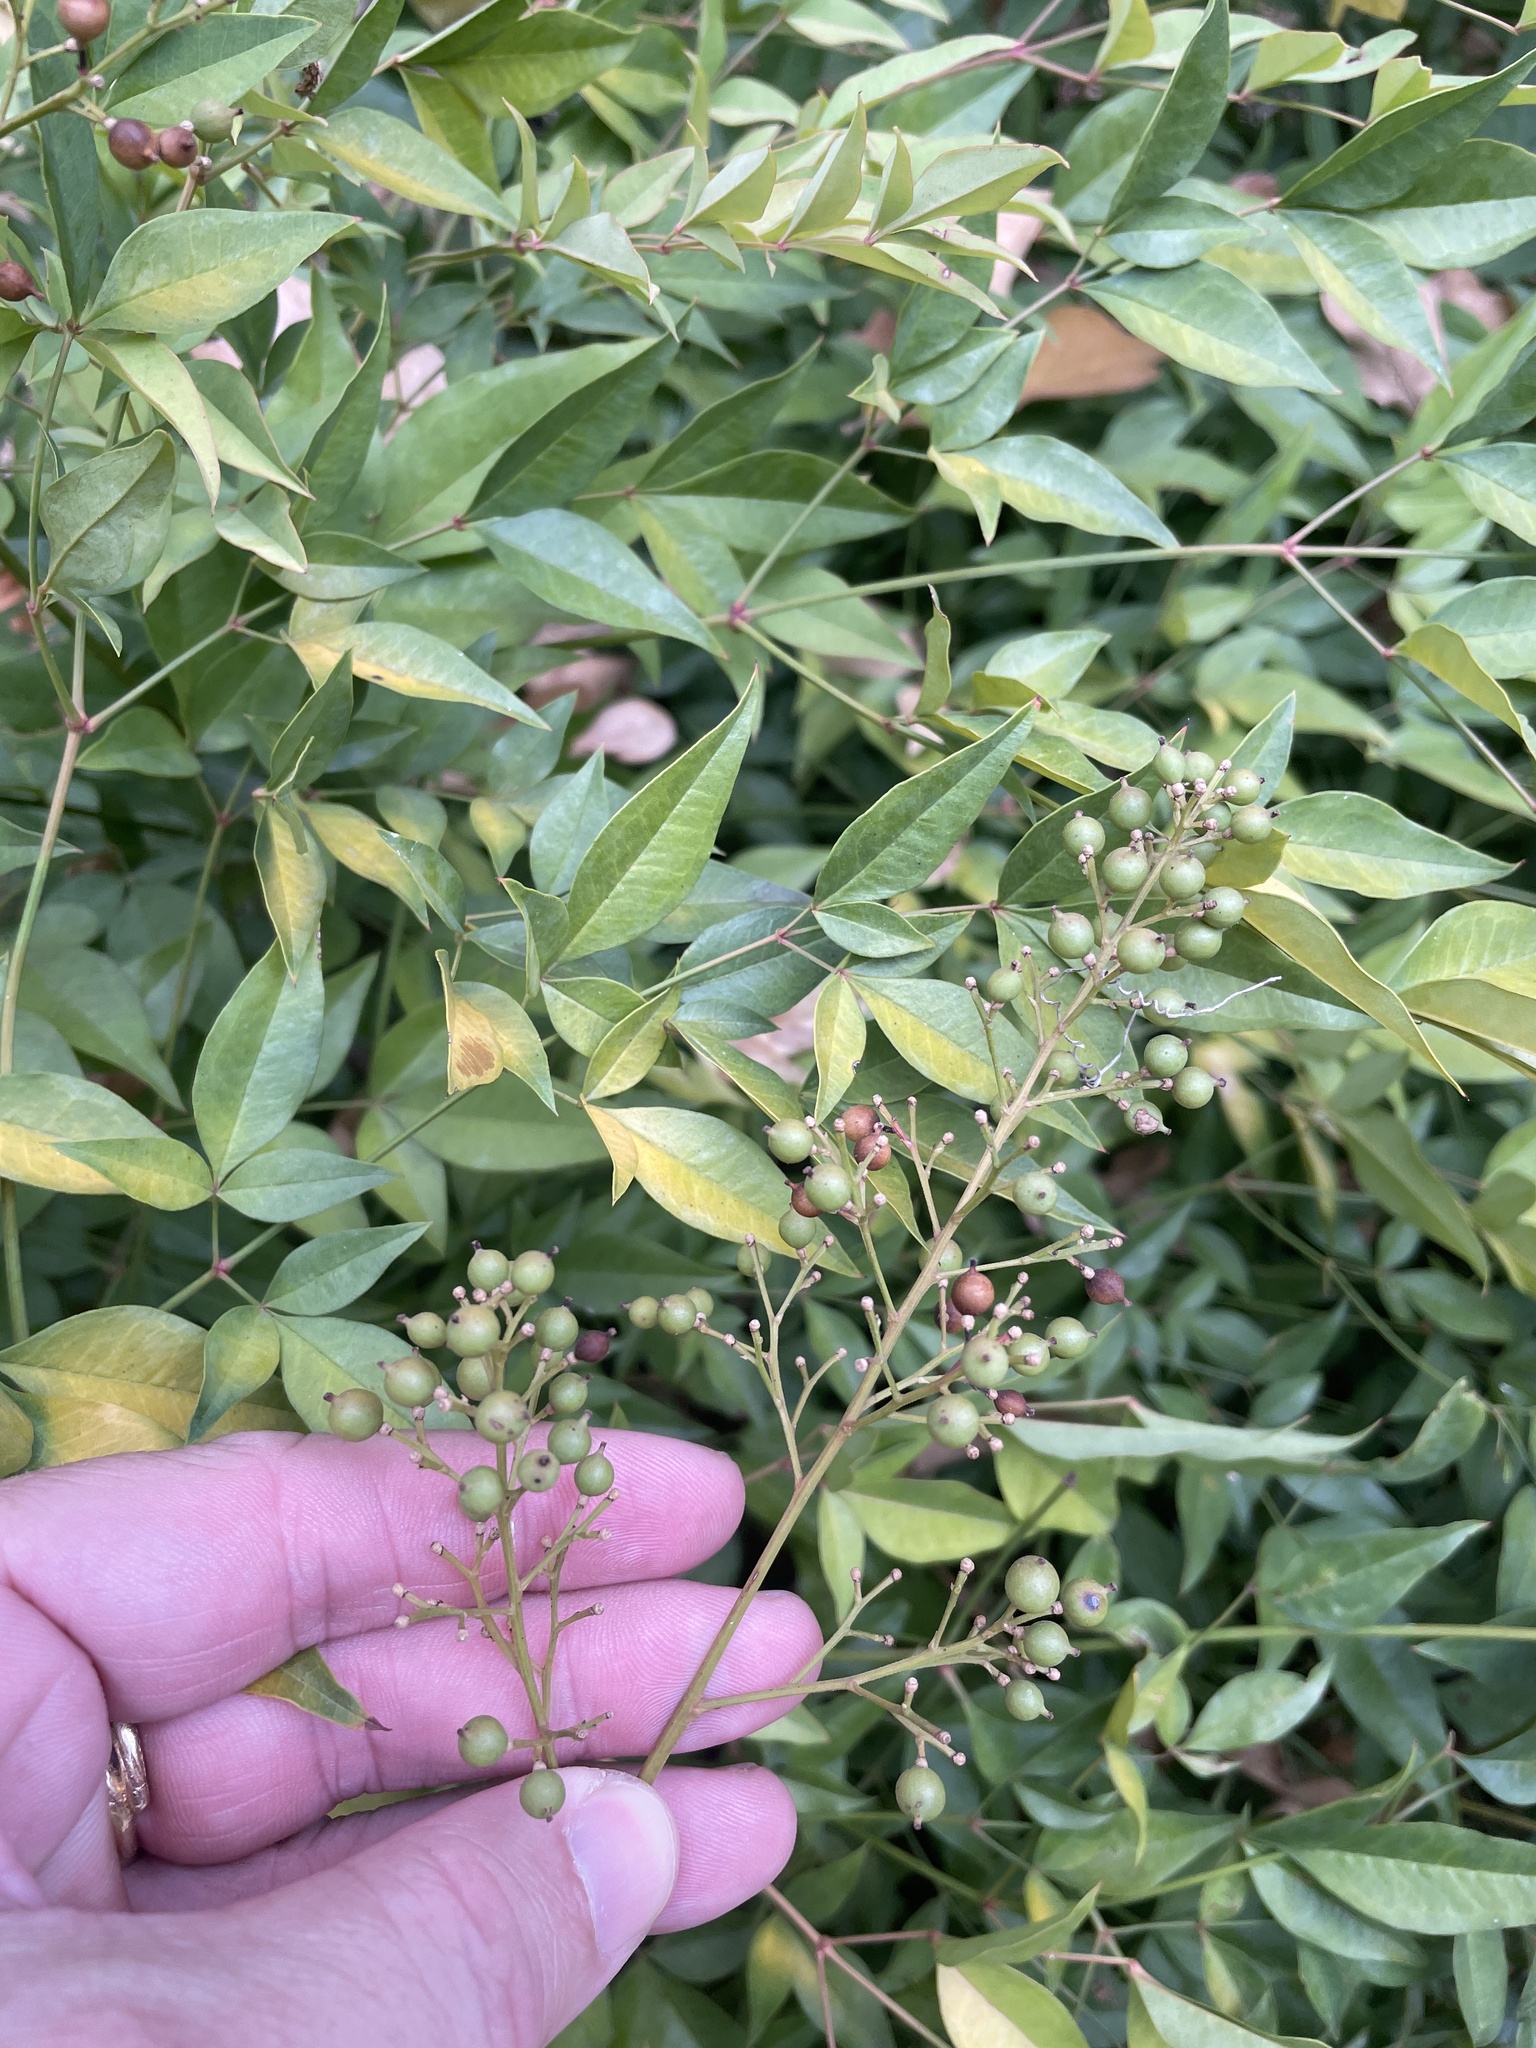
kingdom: Plantae
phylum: Tracheophyta
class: Magnoliopsida
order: Ranunculales
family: Berberidaceae
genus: Nandina
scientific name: Nandina domestica
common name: Sacred bamboo
